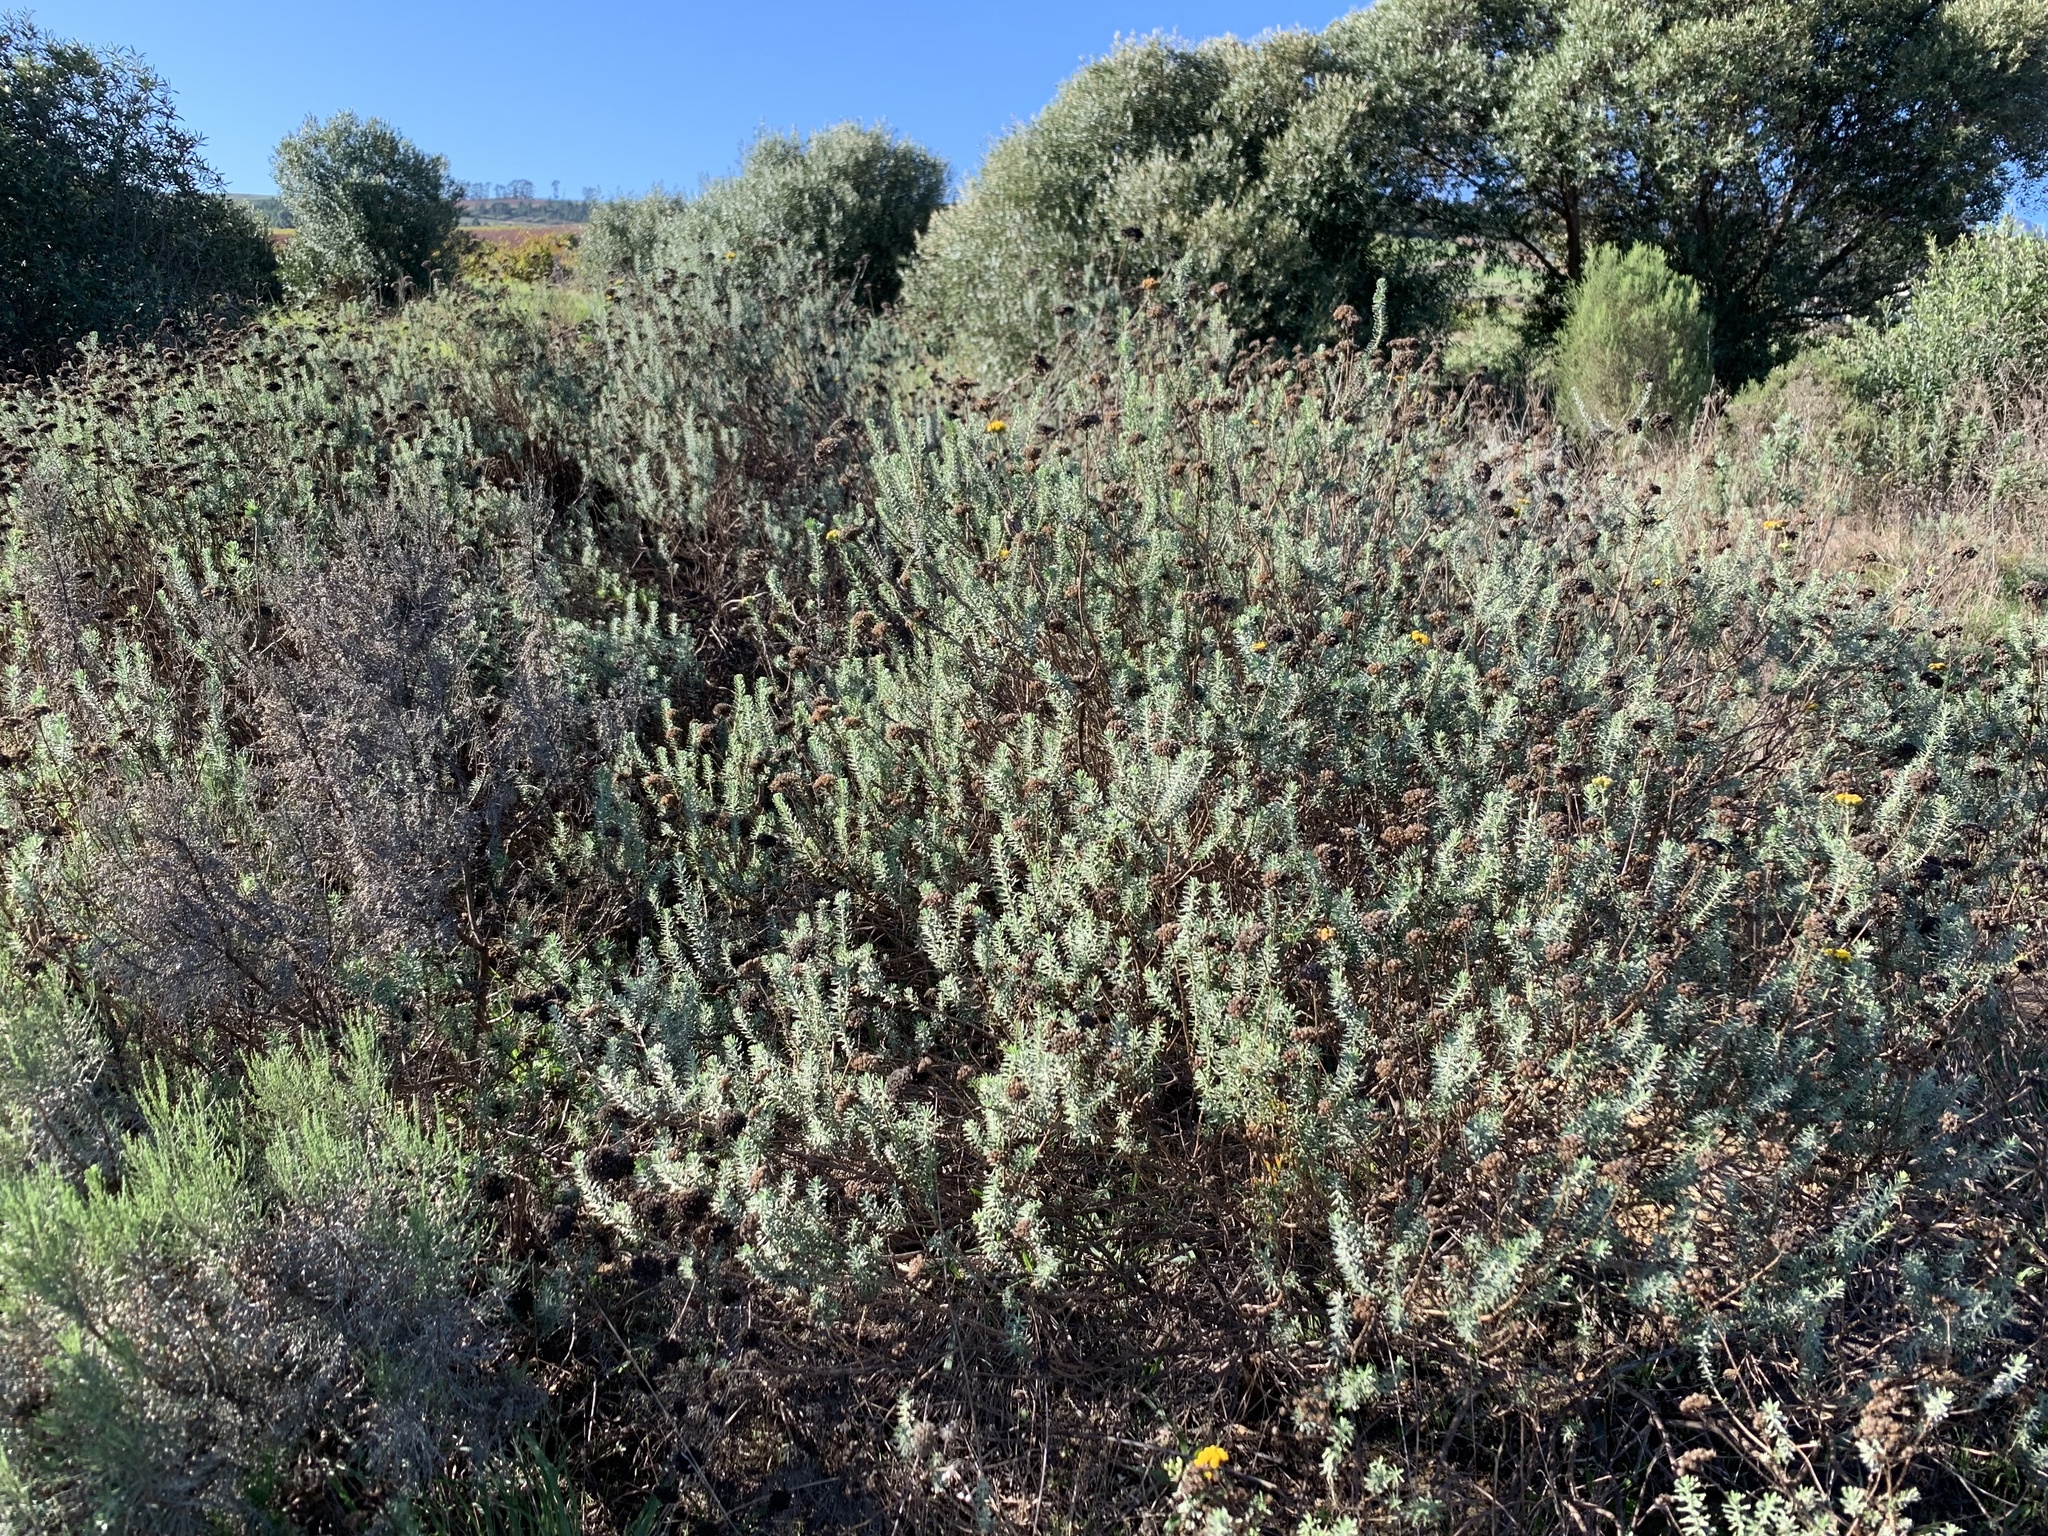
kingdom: Plantae
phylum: Tracheophyta
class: Magnoliopsida
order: Asterales
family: Asteraceae
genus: Athanasia
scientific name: Athanasia trifurcata
